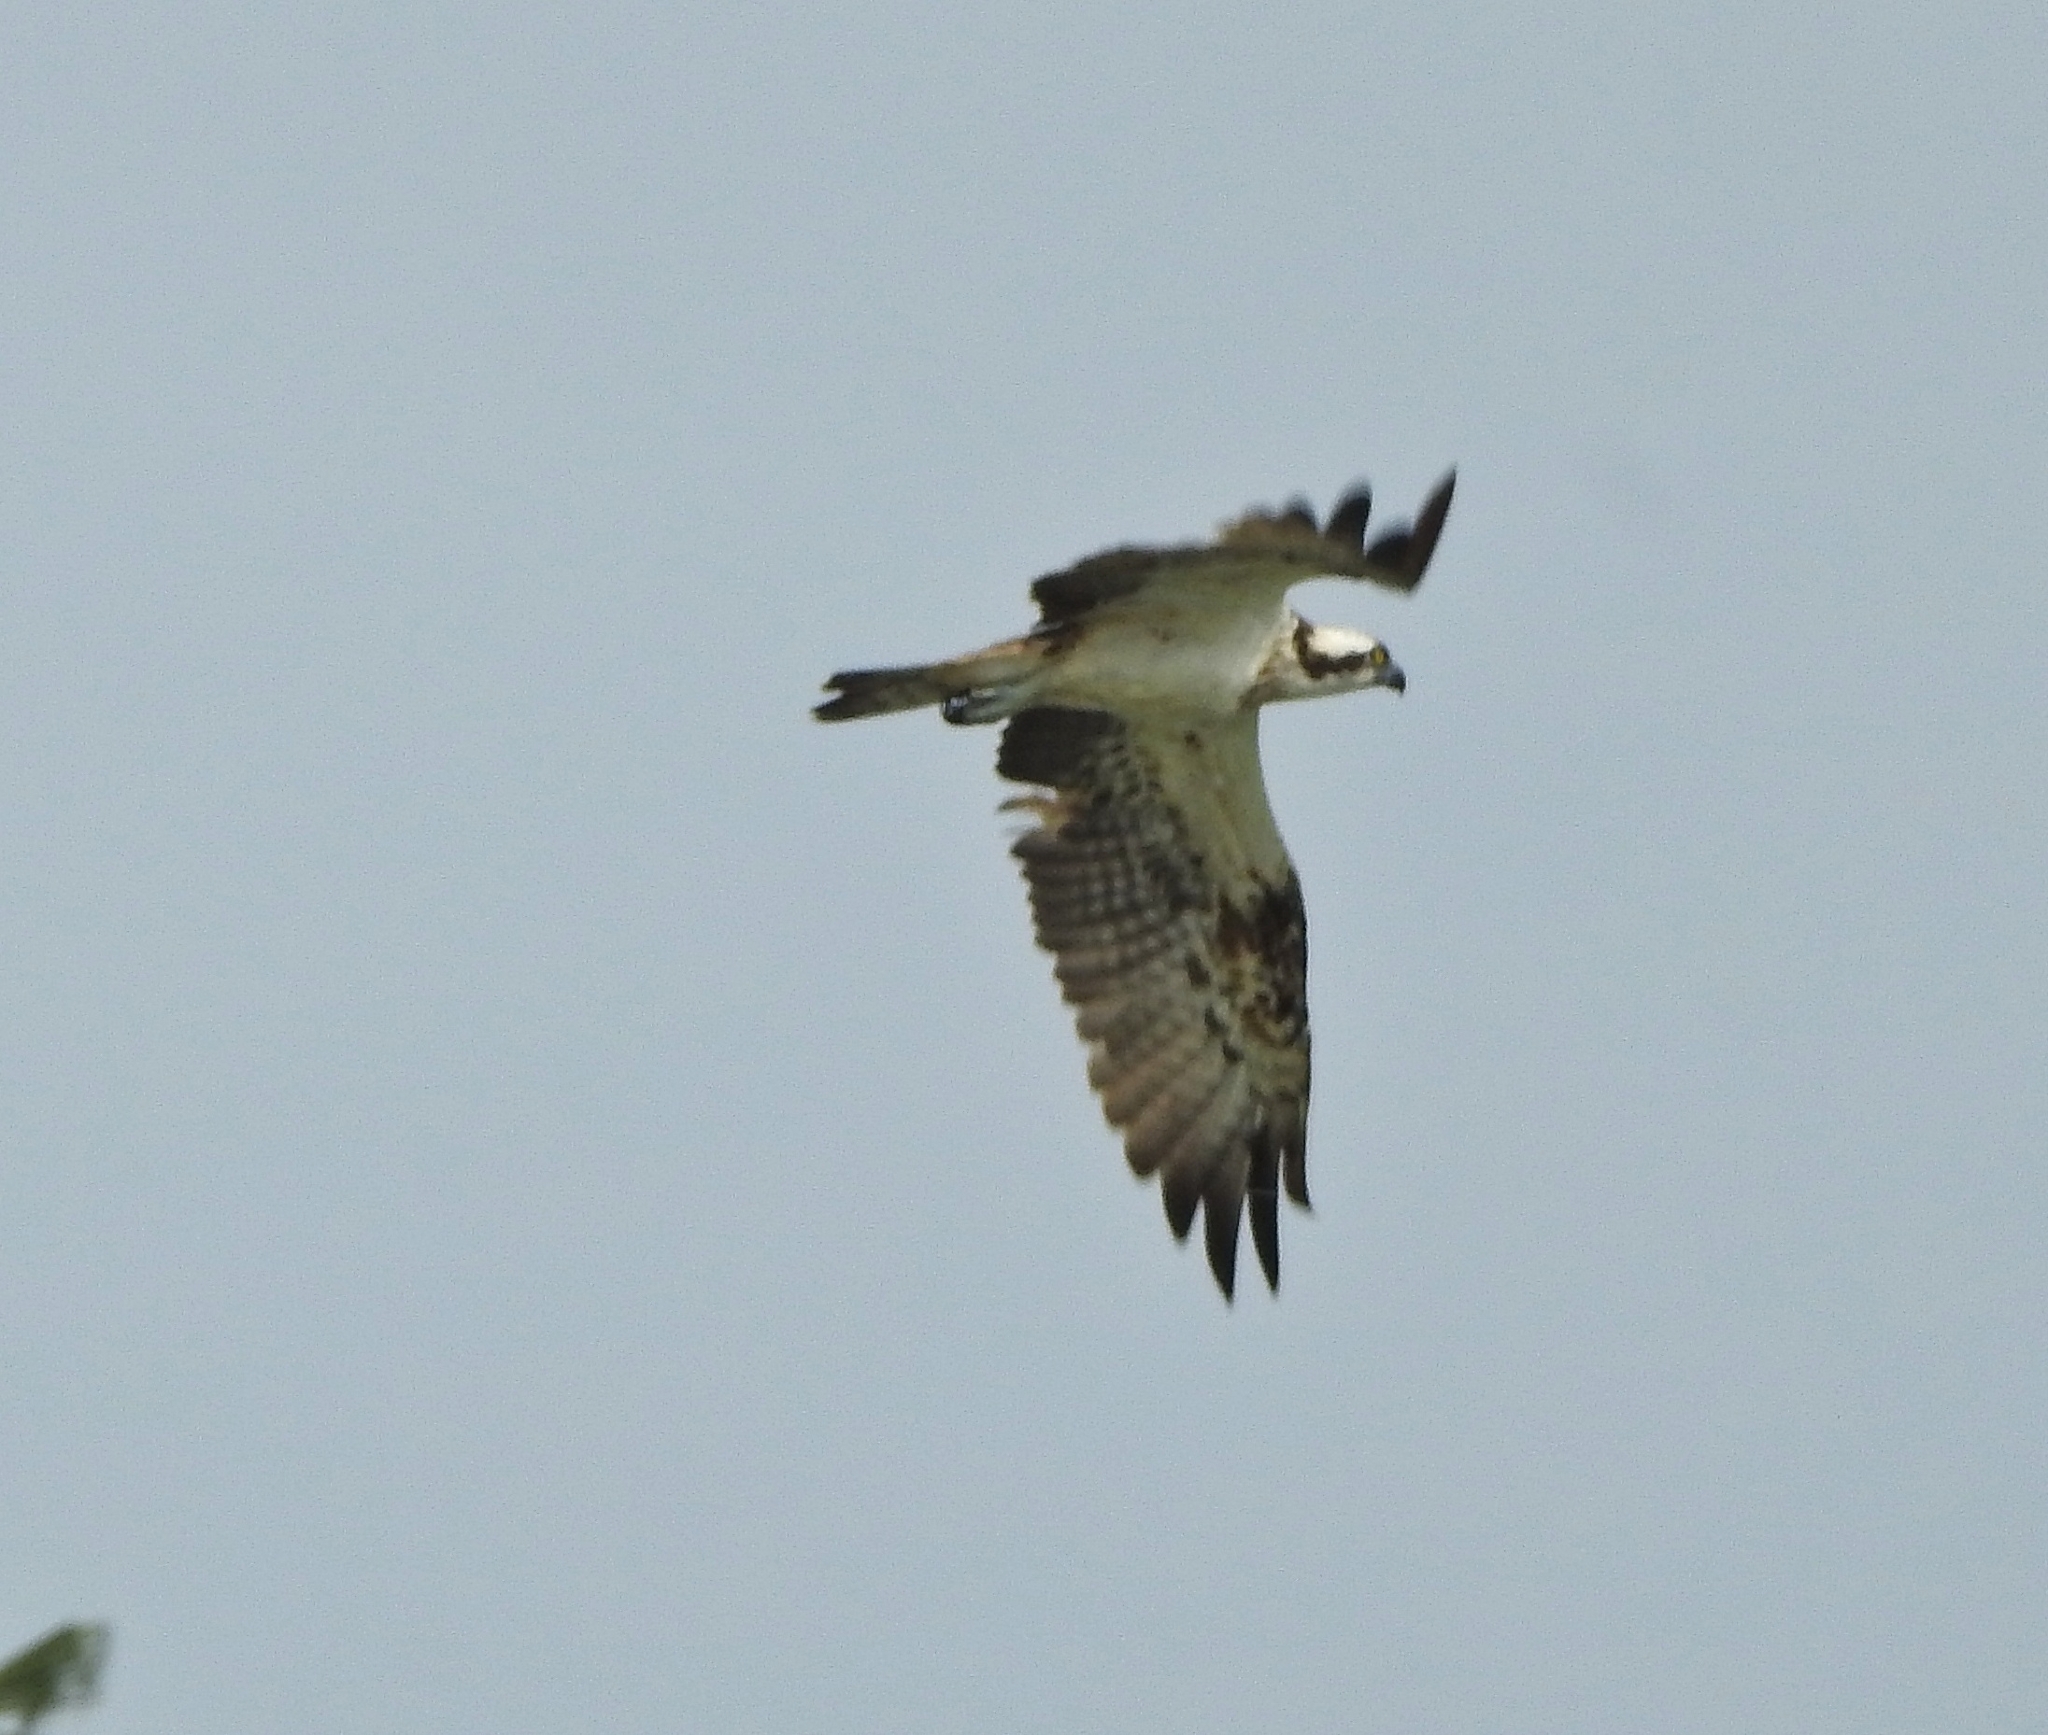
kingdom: Animalia
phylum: Chordata
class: Aves
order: Accipitriformes
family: Pandionidae
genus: Pandion
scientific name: Pandion haliaetus
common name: Osprey
